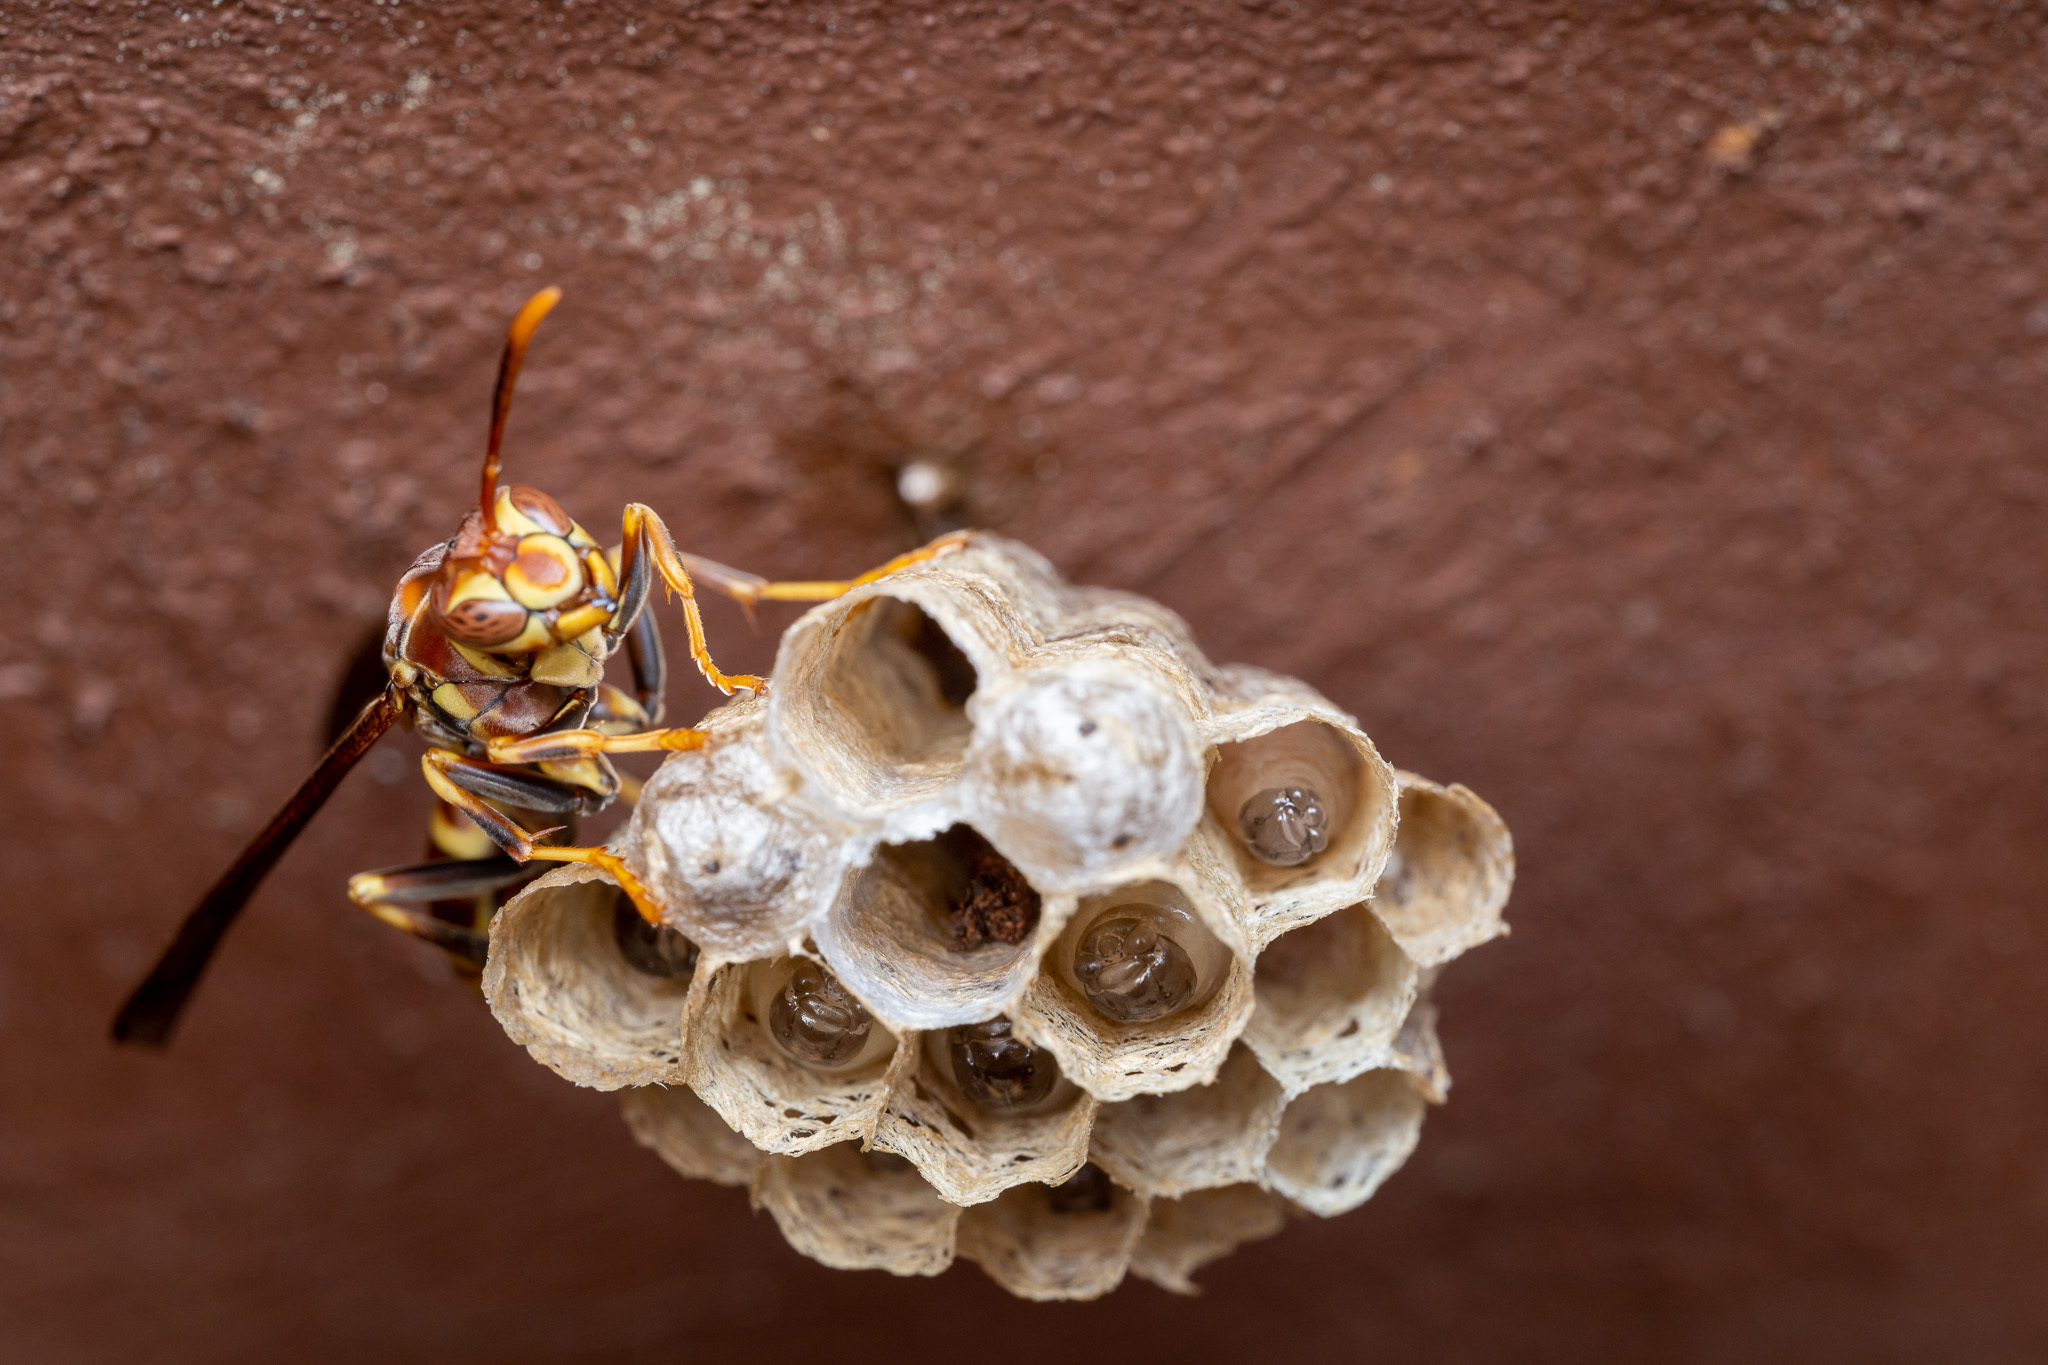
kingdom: Animalia
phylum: Arthropoda
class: Insecta
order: Hymenoptera
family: Eumenidae
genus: Polistes
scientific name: Polistes exclamans
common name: Paper wasp
